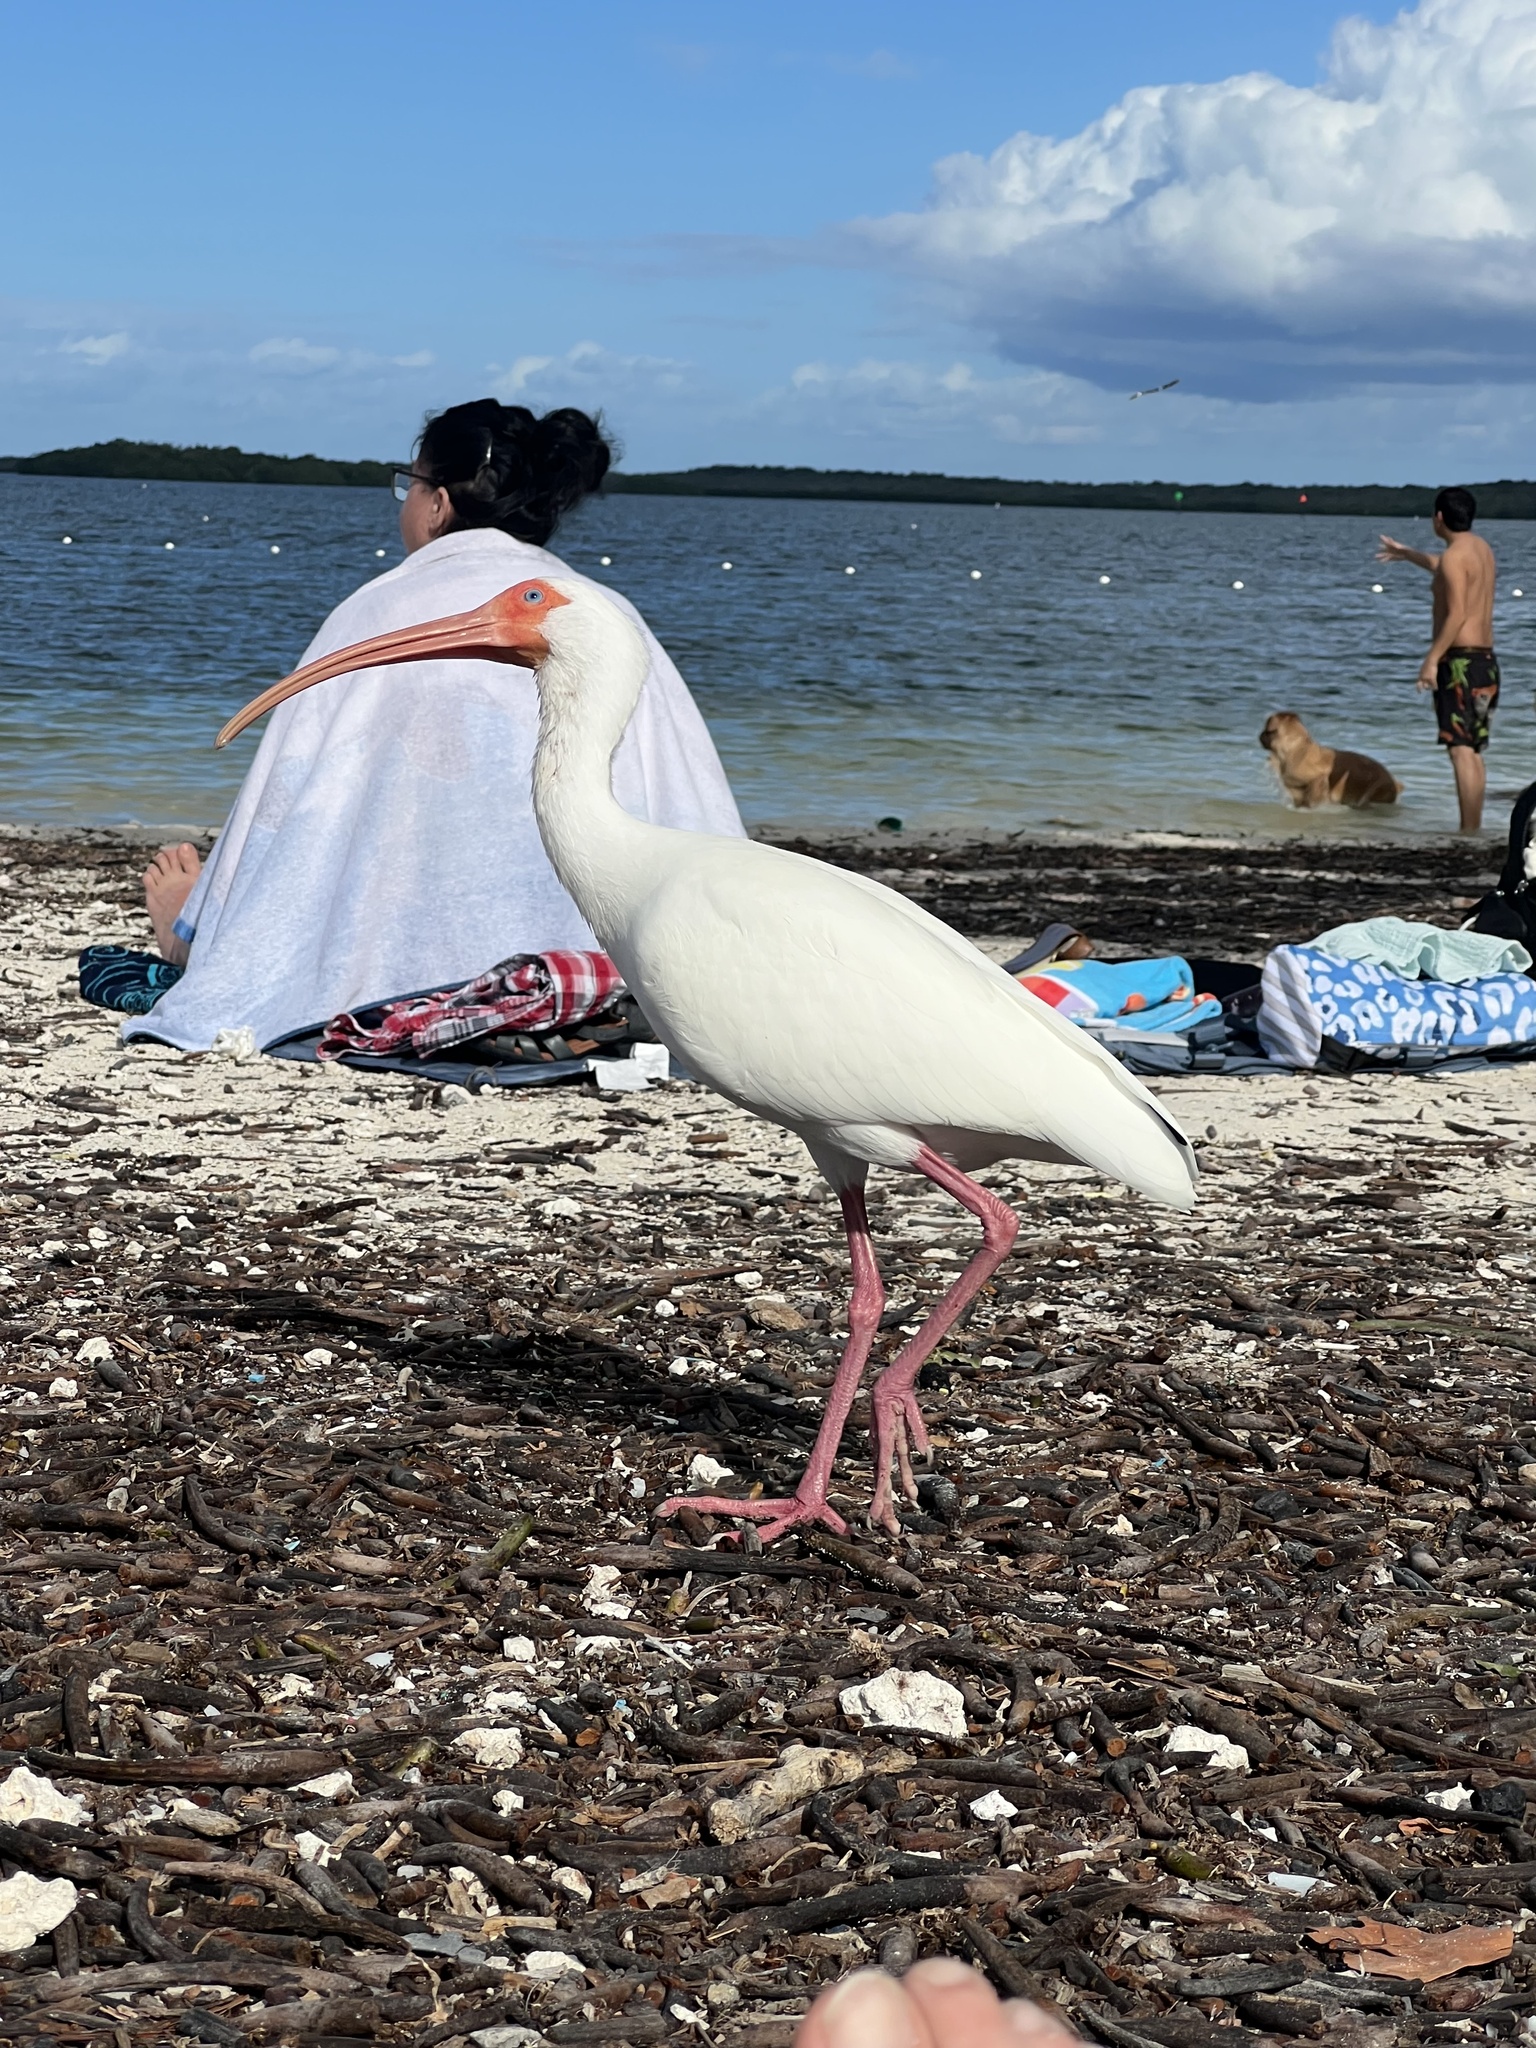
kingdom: Animalia
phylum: Chordata
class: Aves
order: Pelecaniformes
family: Threskiornithidae
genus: Eudocimus
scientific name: Eudocimus albus
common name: White ibis
